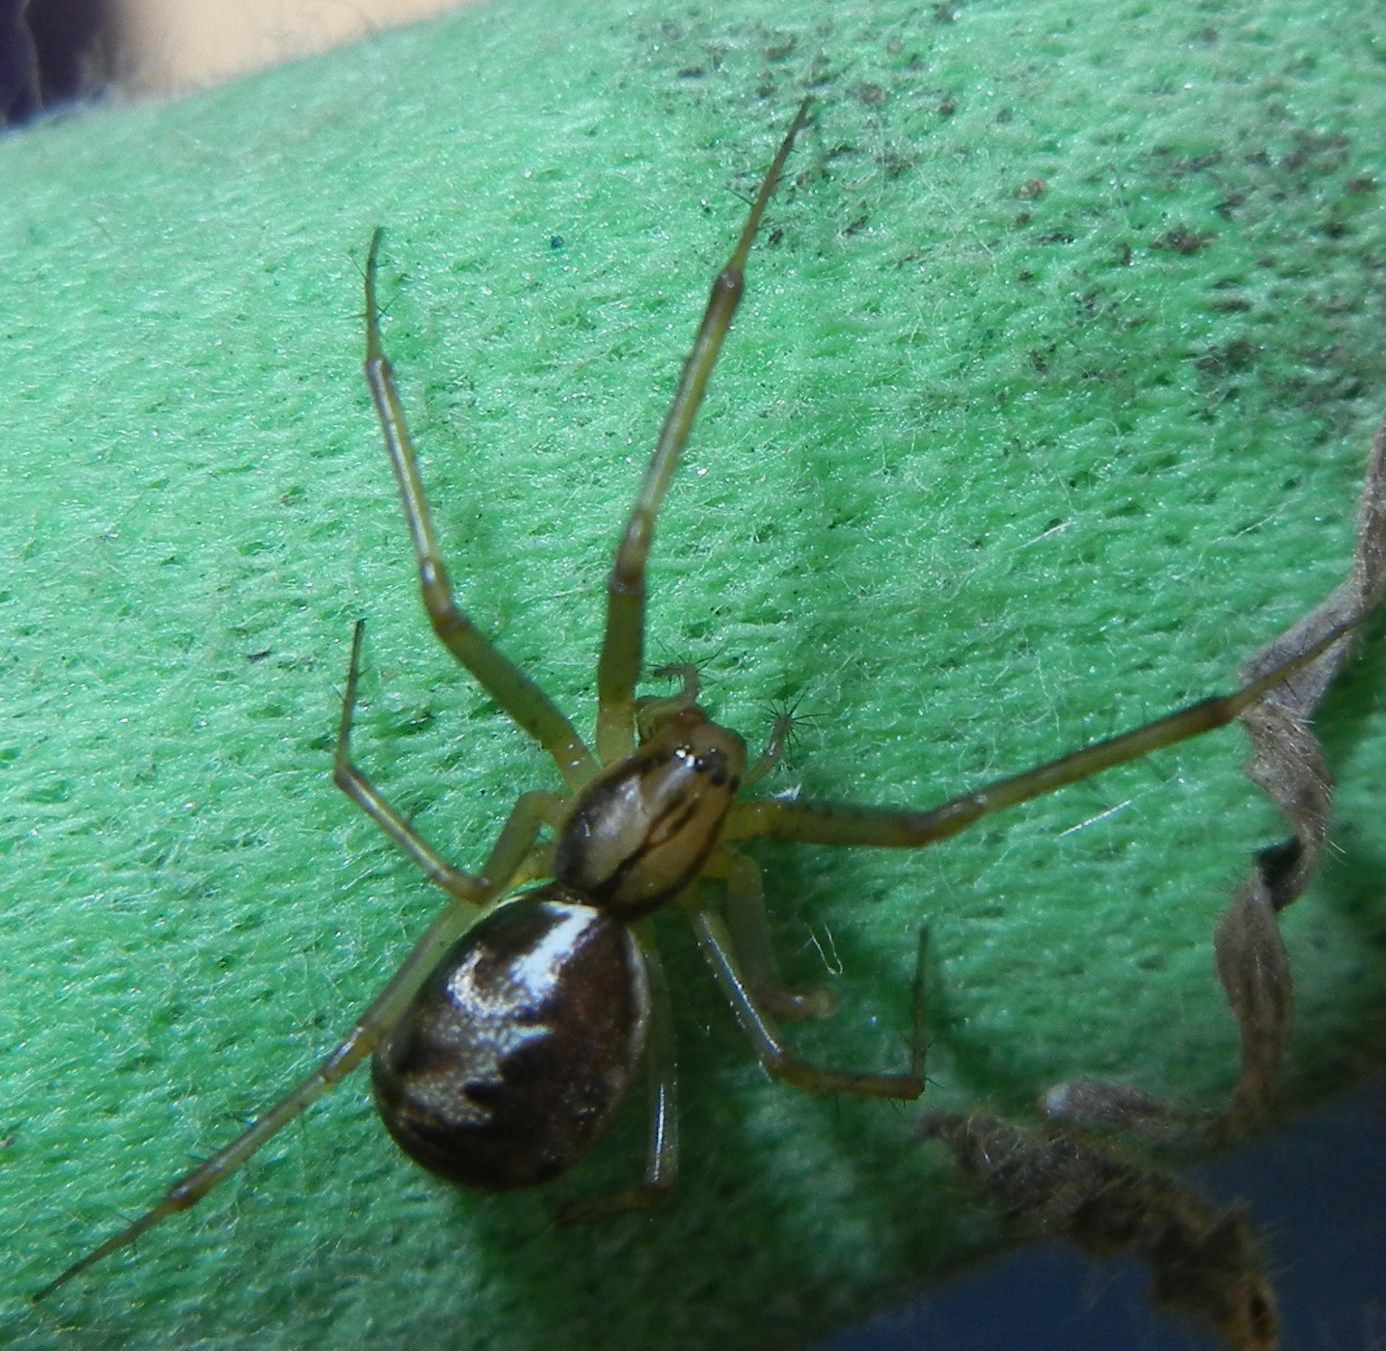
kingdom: Animalia
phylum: Arthropoda
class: Arachnida
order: Araneae
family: Linyphiidae
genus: Linyphia
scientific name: Linyphia triangularis
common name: Money spider
